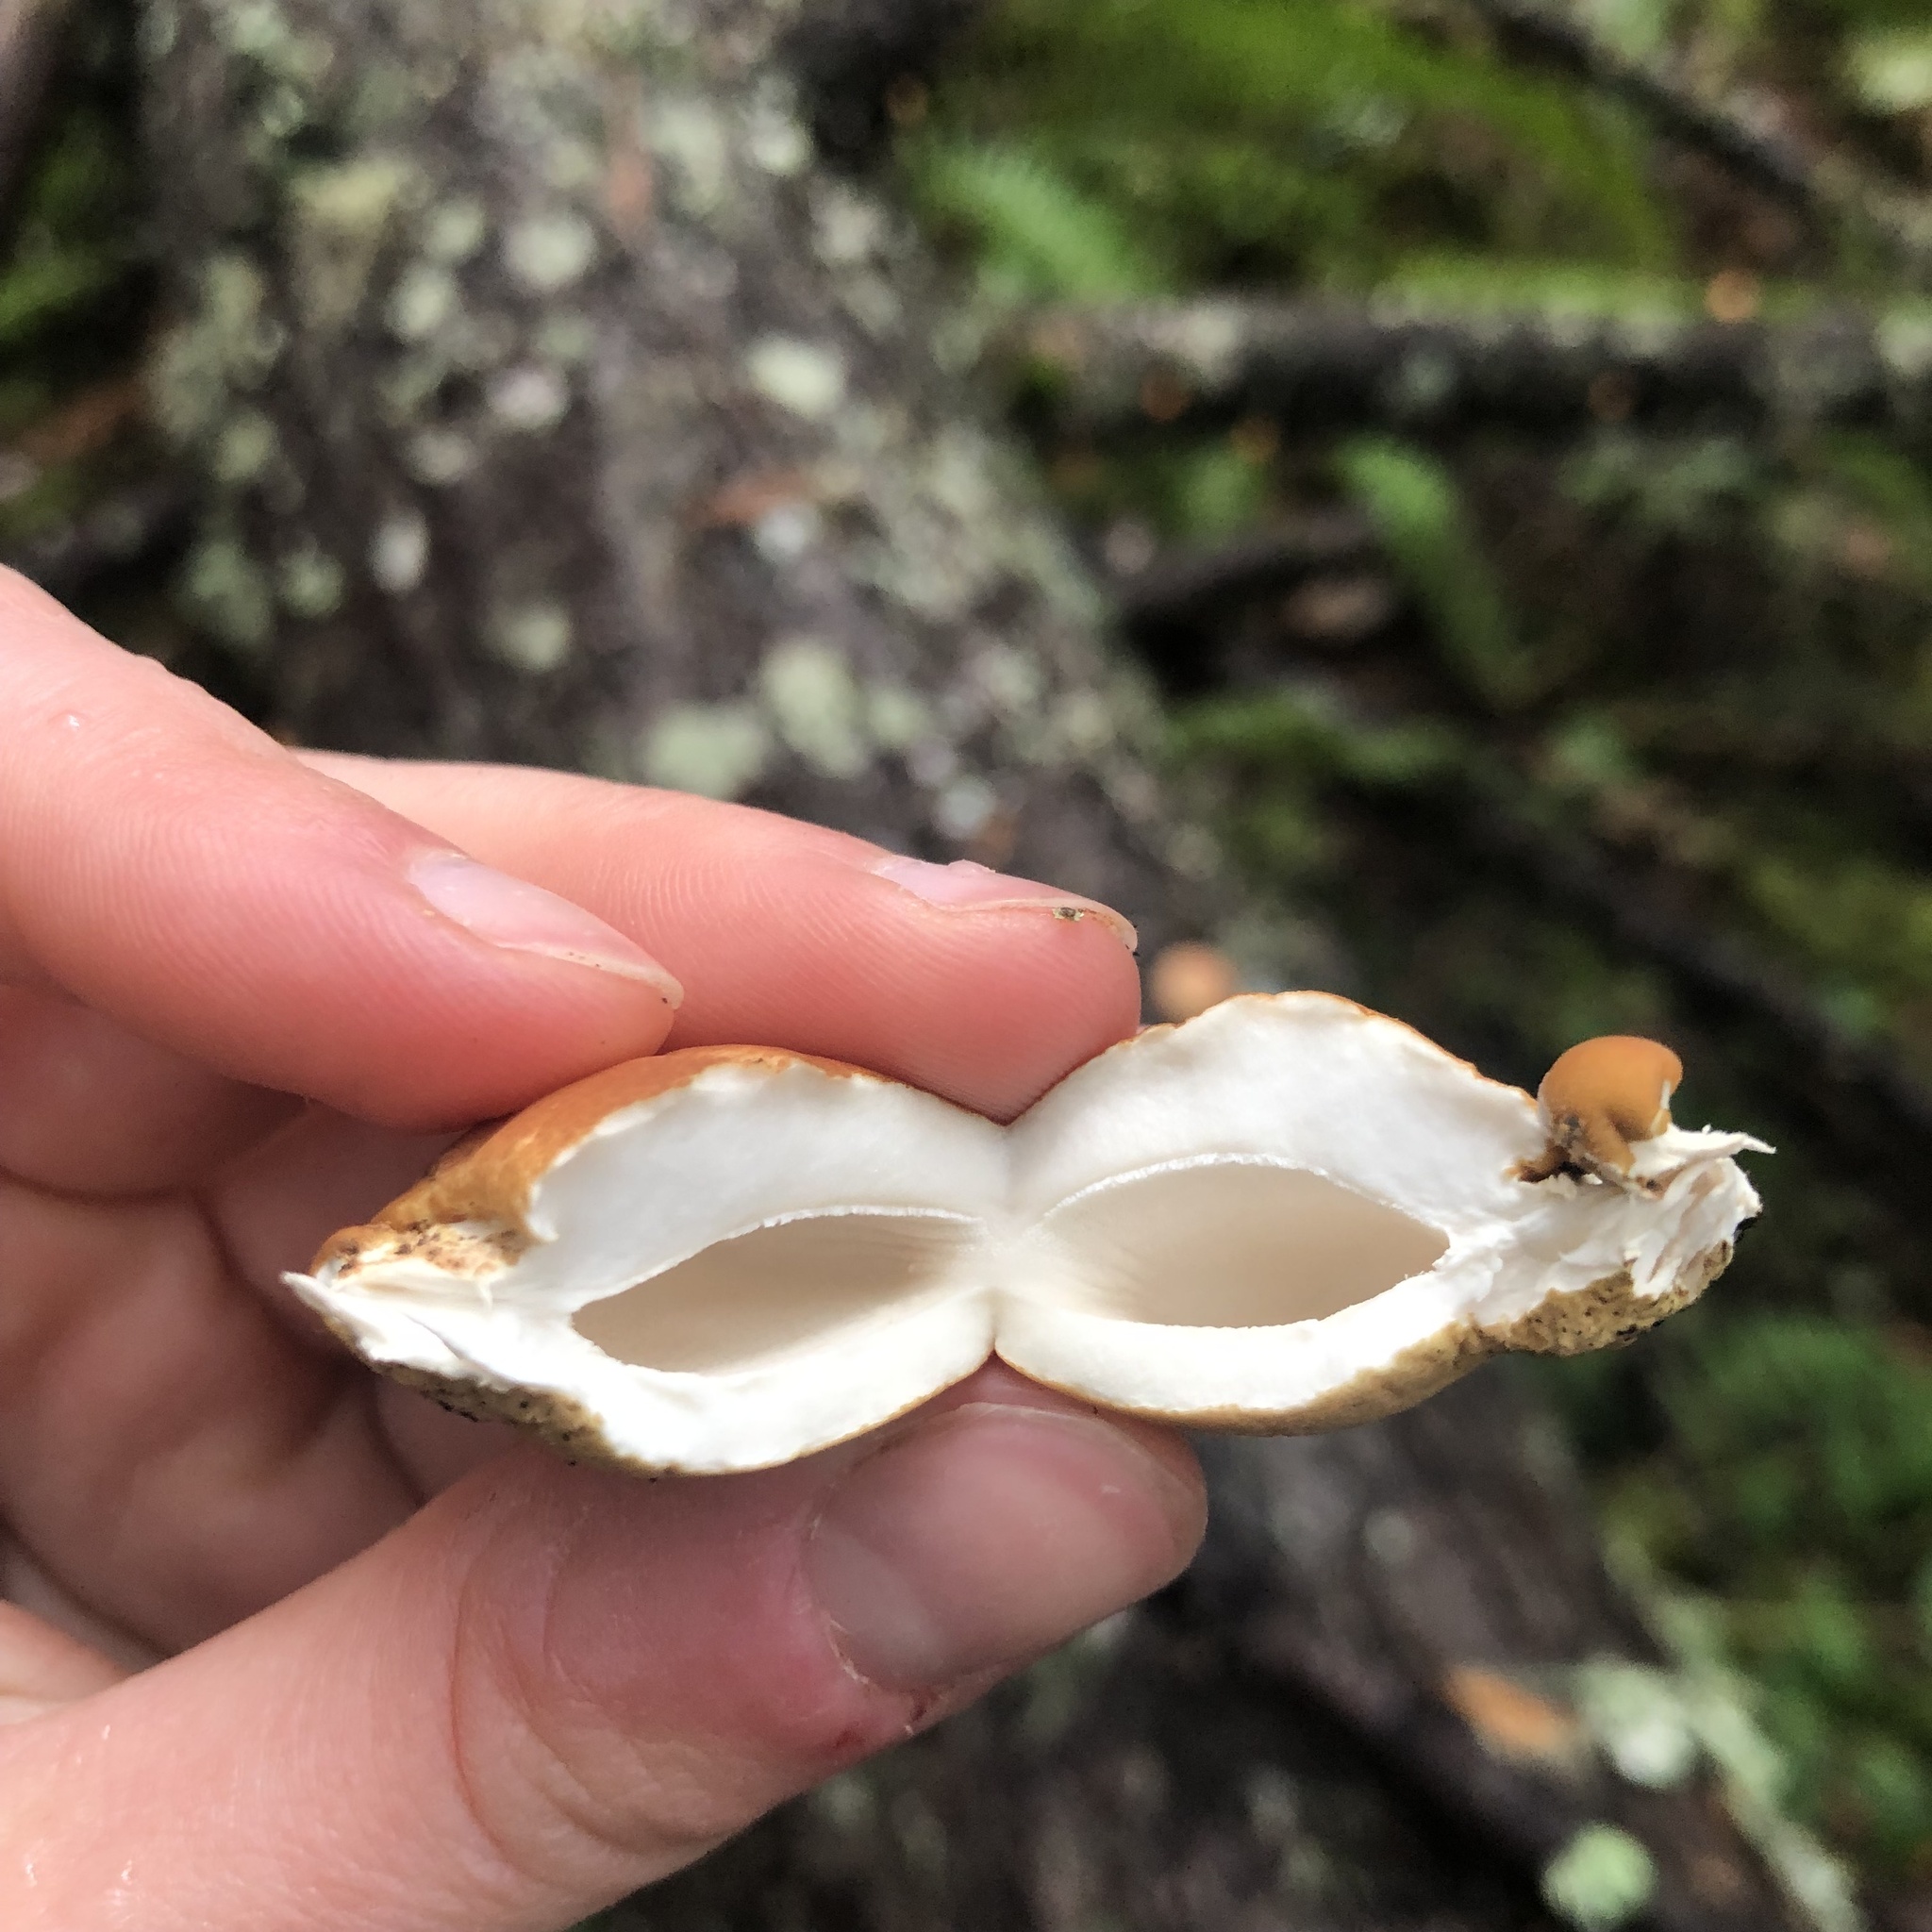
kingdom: Fungi
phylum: Basidiomycota
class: Agaricomycetes
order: Polyporales
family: Polyporaceae
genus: Cryptoporus
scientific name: Cryptoporus volvatus
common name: Veiled polypore
